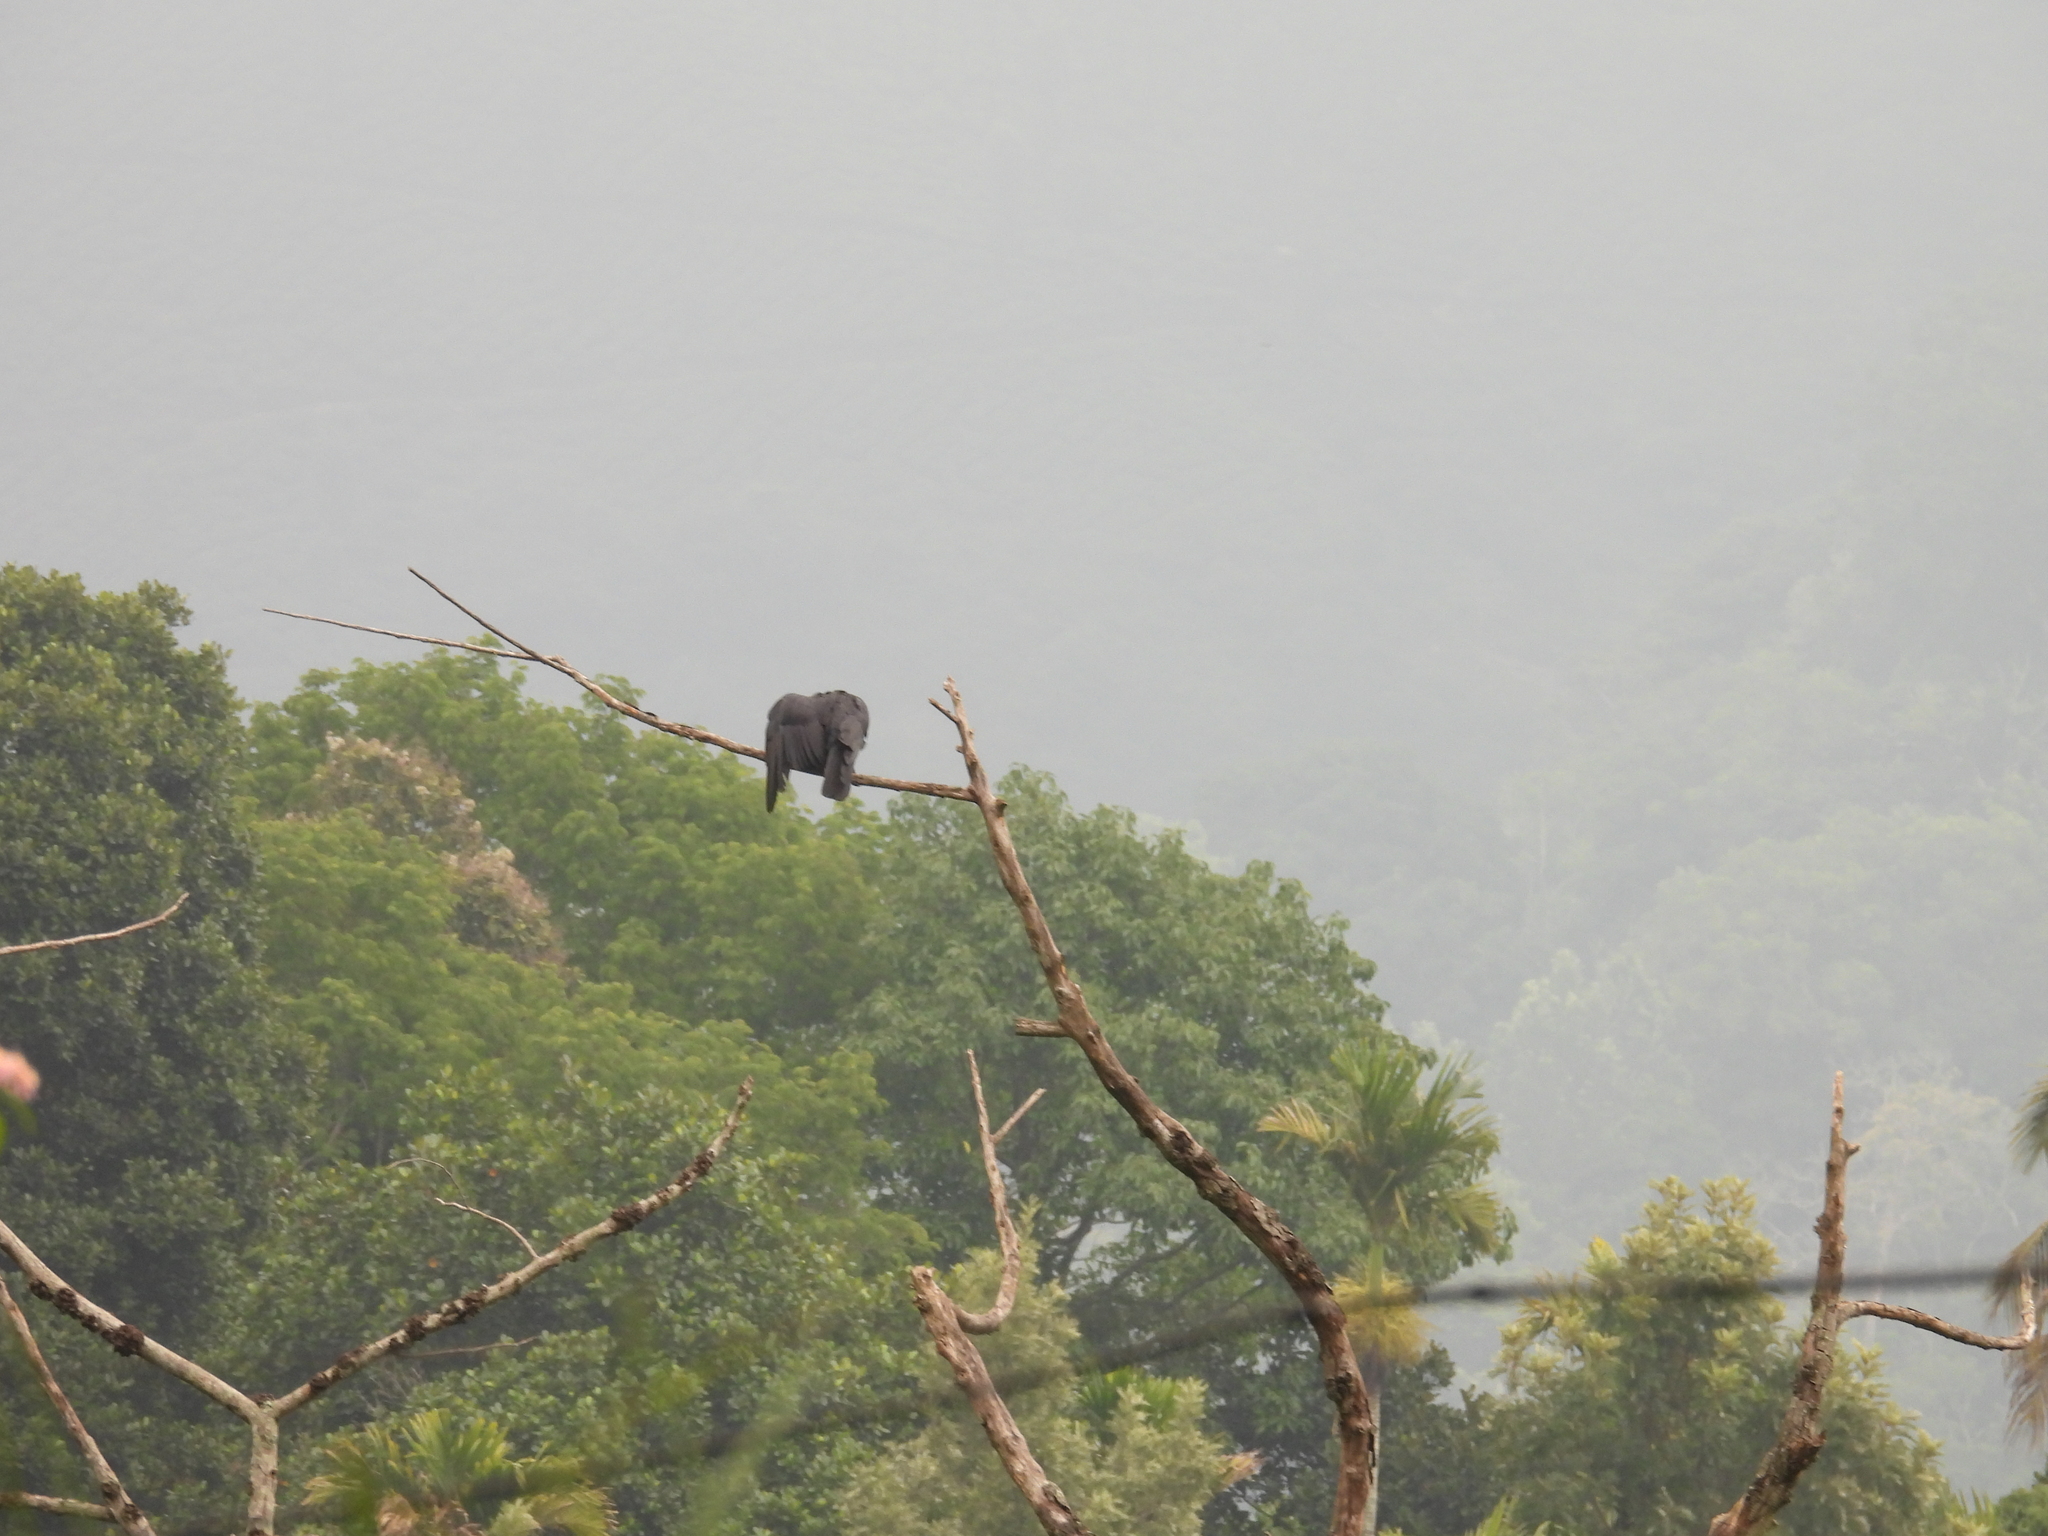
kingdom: Animalia
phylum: Chordata
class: Aves
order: Passeriformes
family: Corvidae
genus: Corvus
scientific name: Corvus macrorhynchos
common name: Large-billed crow
